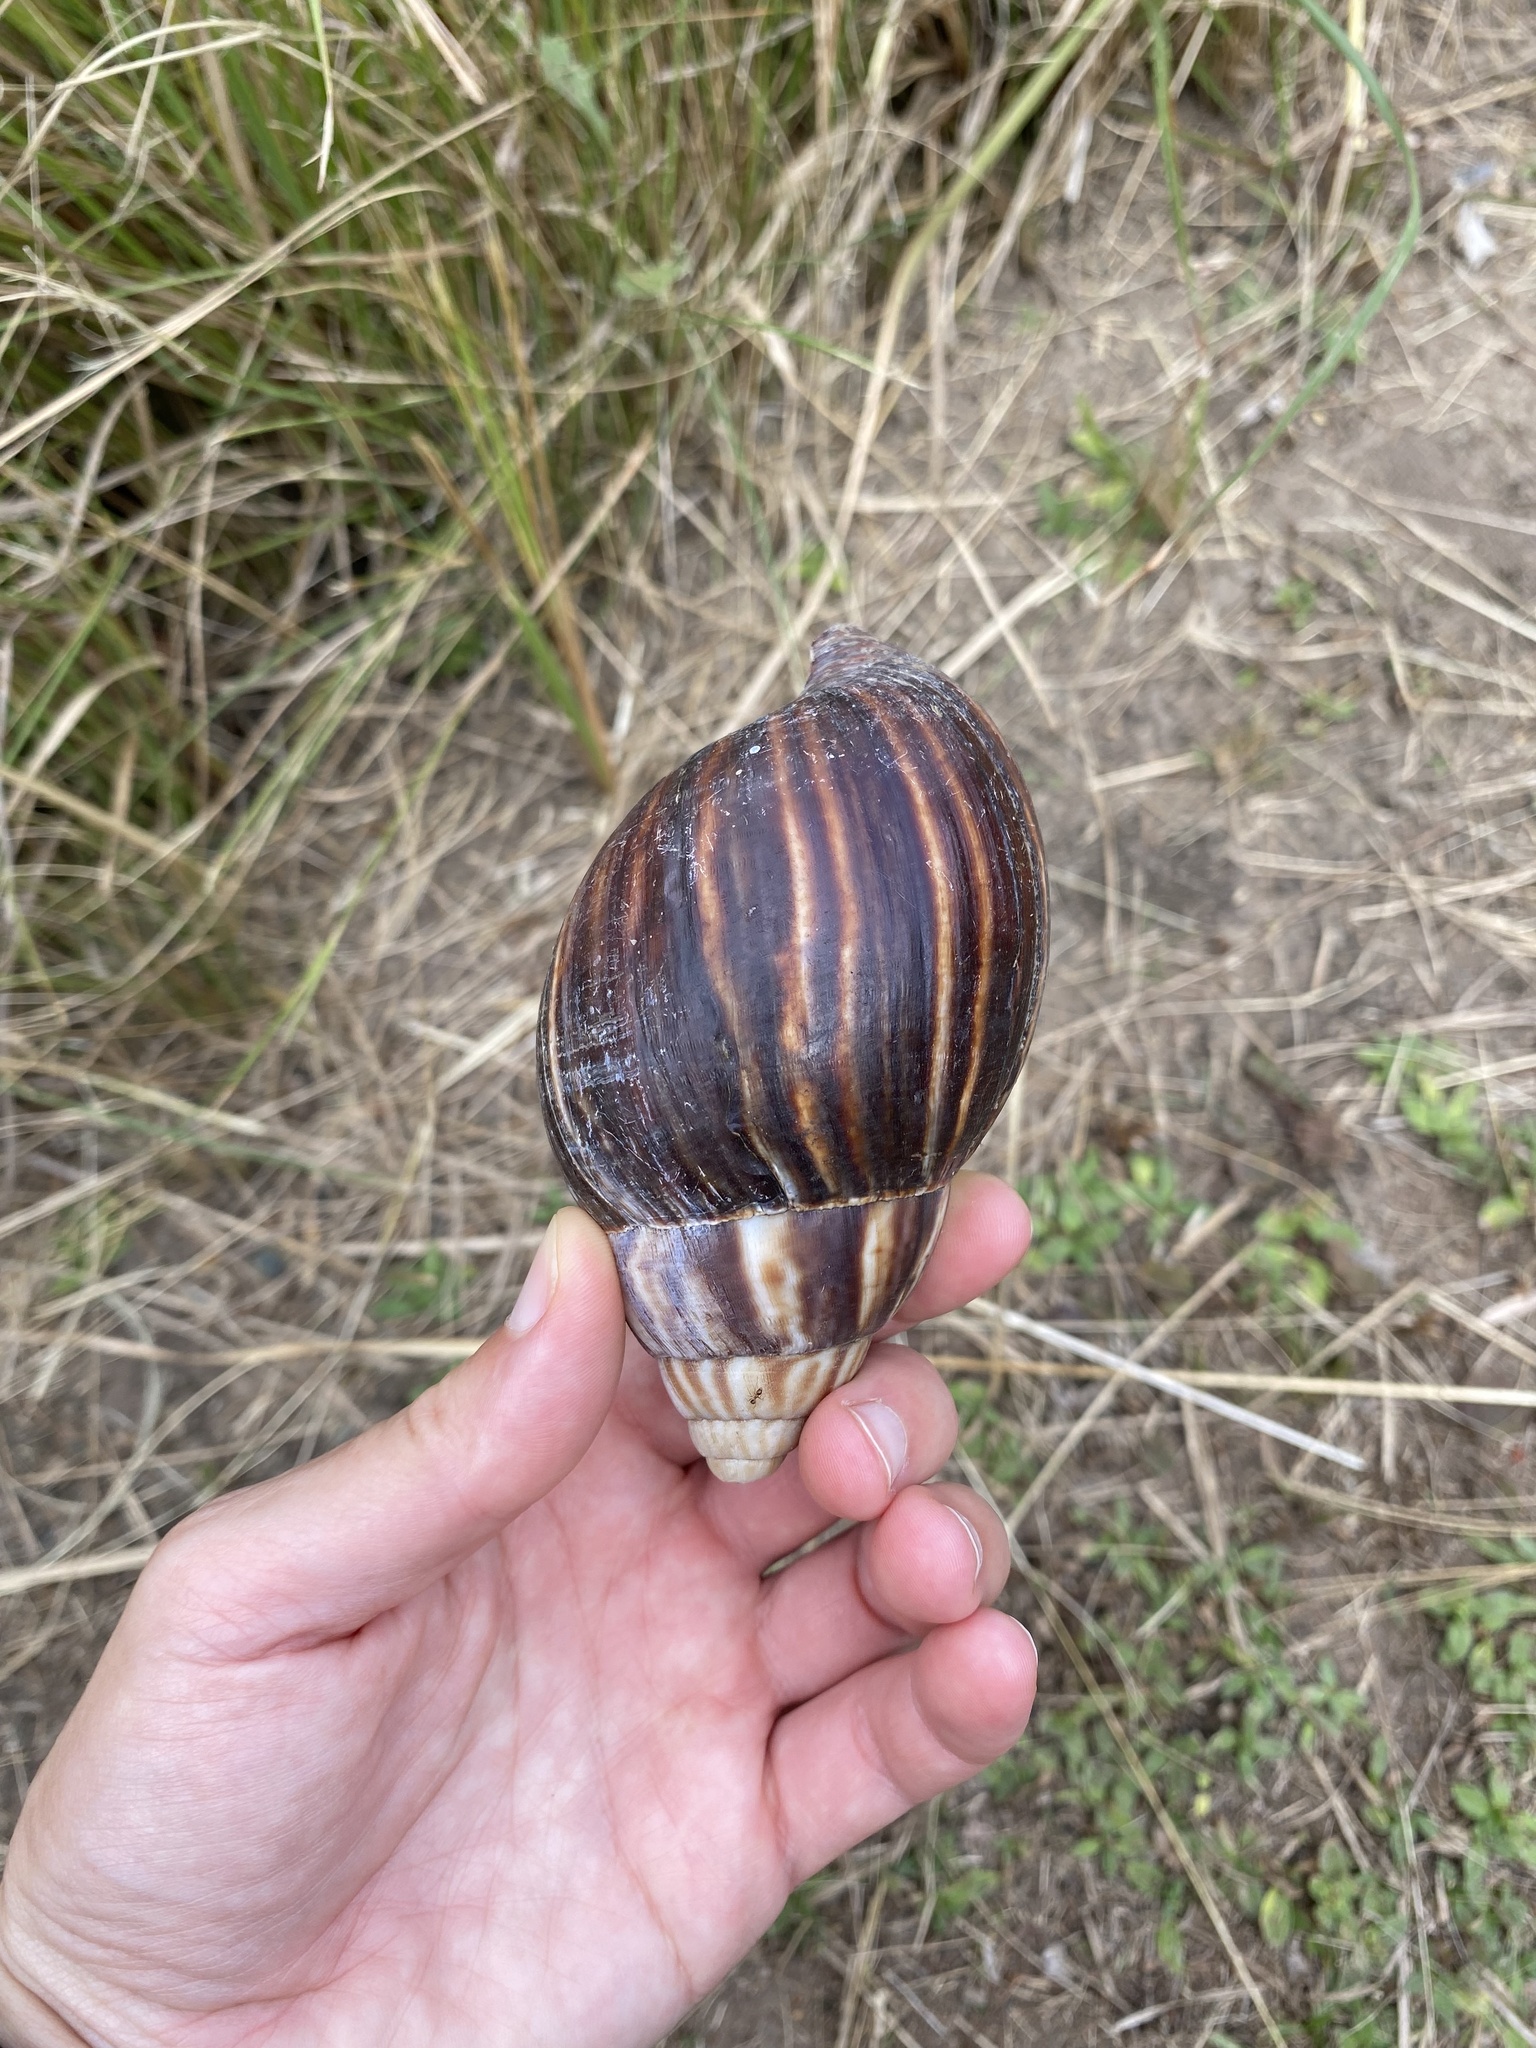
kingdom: Animalia
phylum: Mollusca
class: Gastropoda
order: Stylommatophora
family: Achatinidae
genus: Lissachatina
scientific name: Lissachatina immaculata
